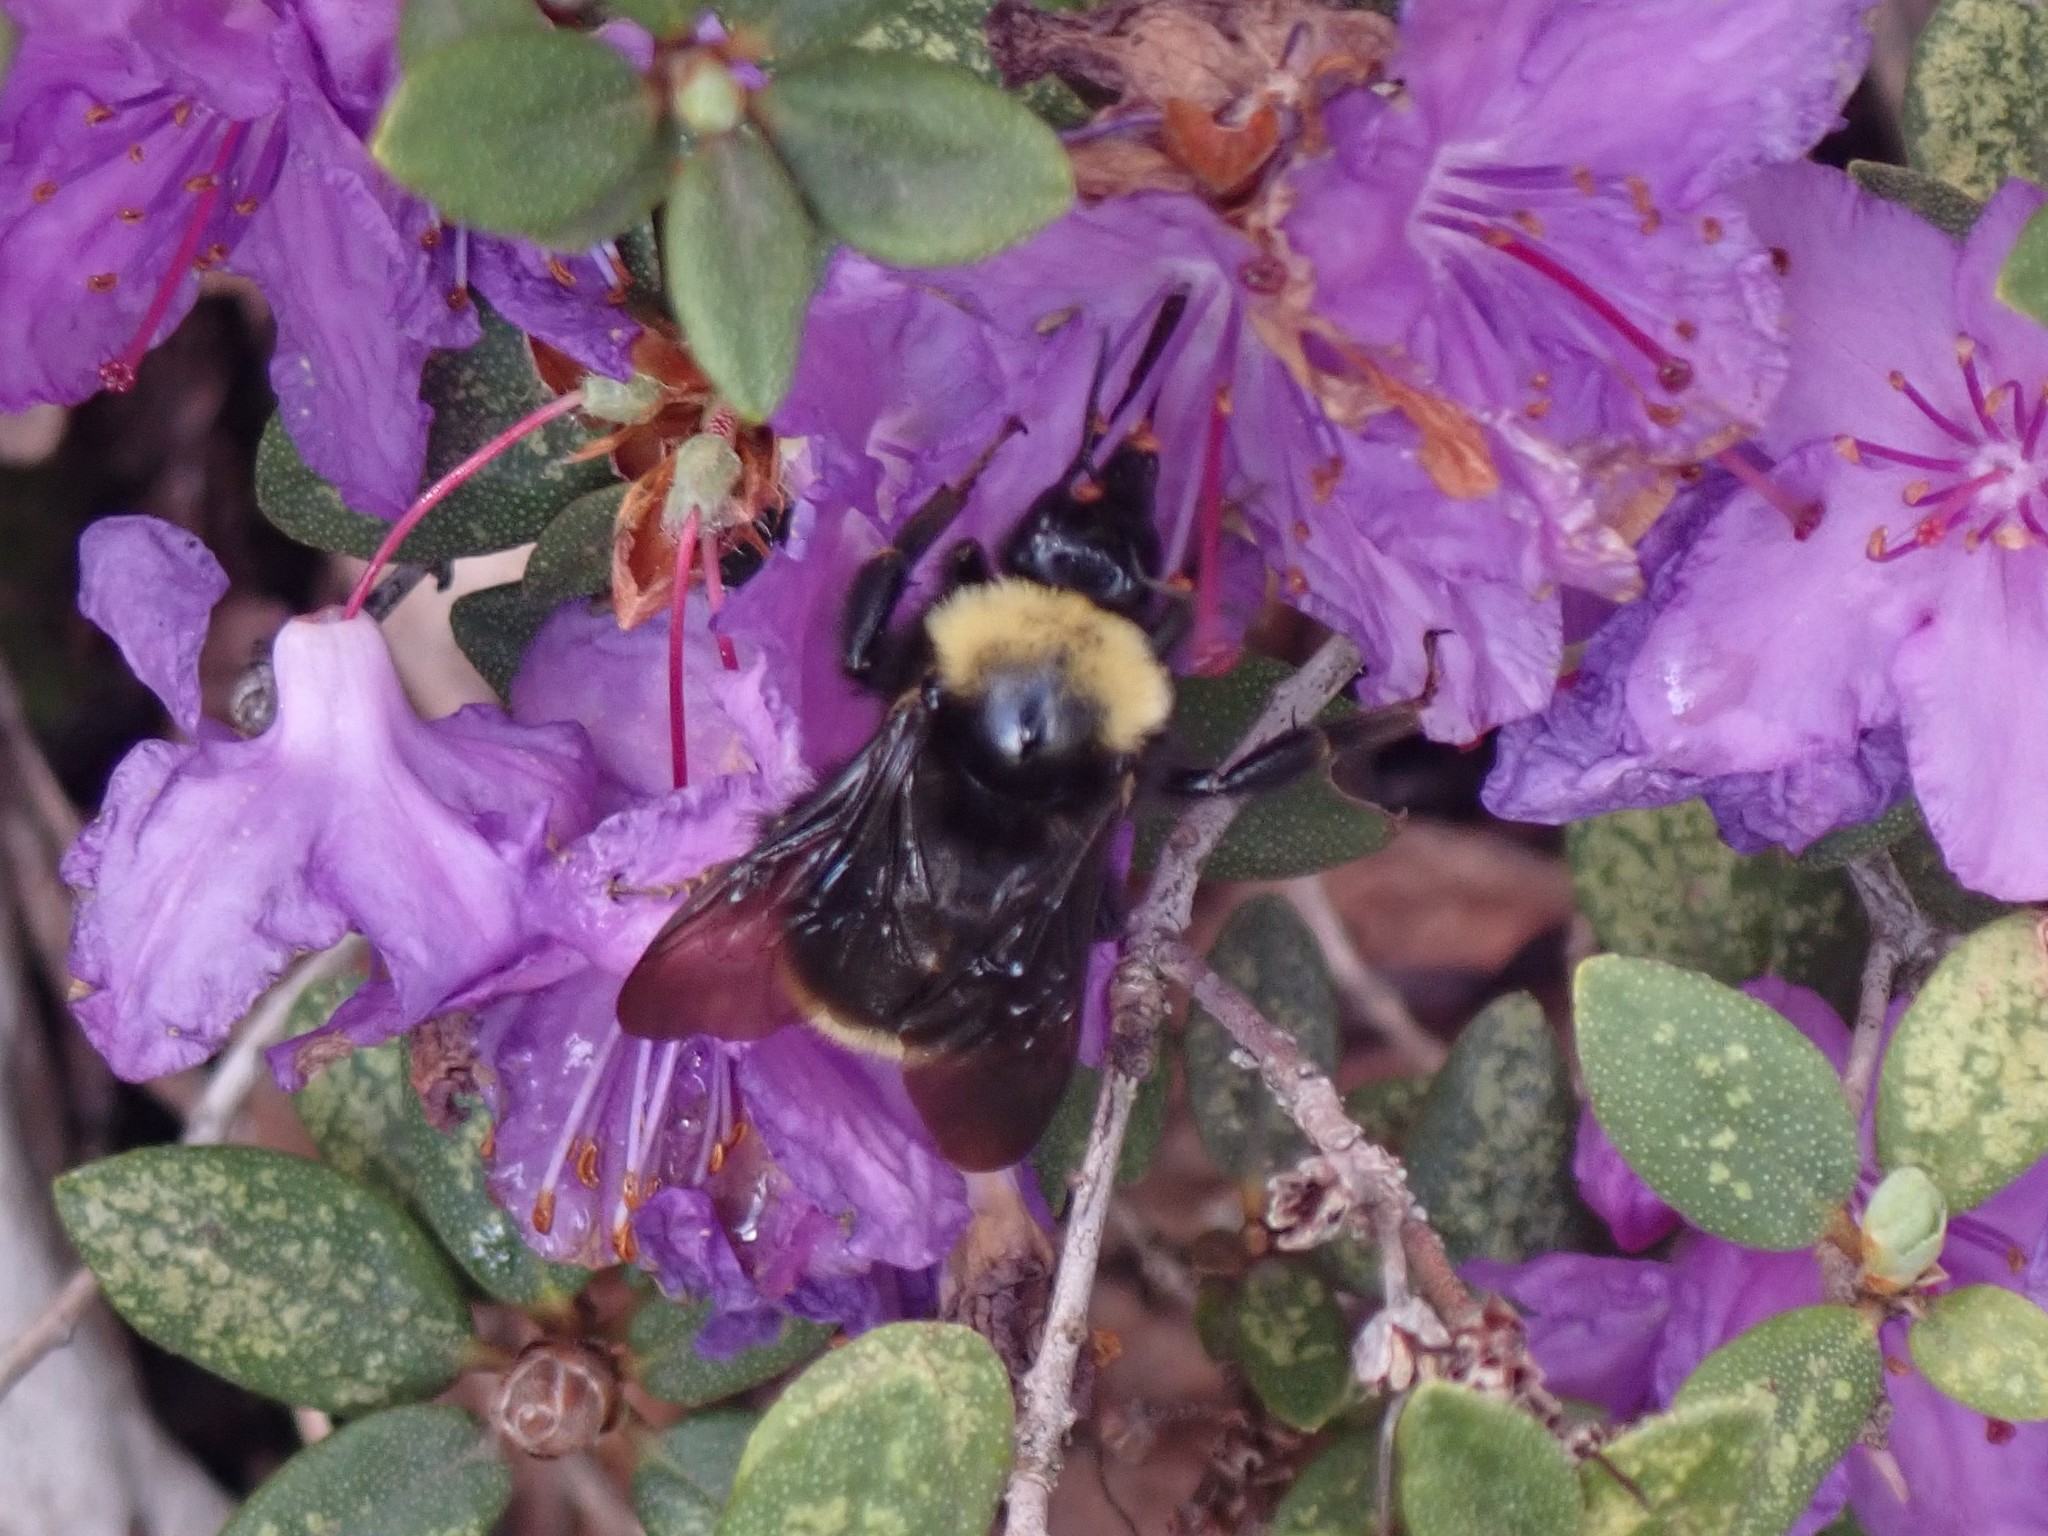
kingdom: Animalia
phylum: Arthropoda
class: Insecta
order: Hymenoptera
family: Apidae
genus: Bombus
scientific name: Bombus californicus
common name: California bumble bee
